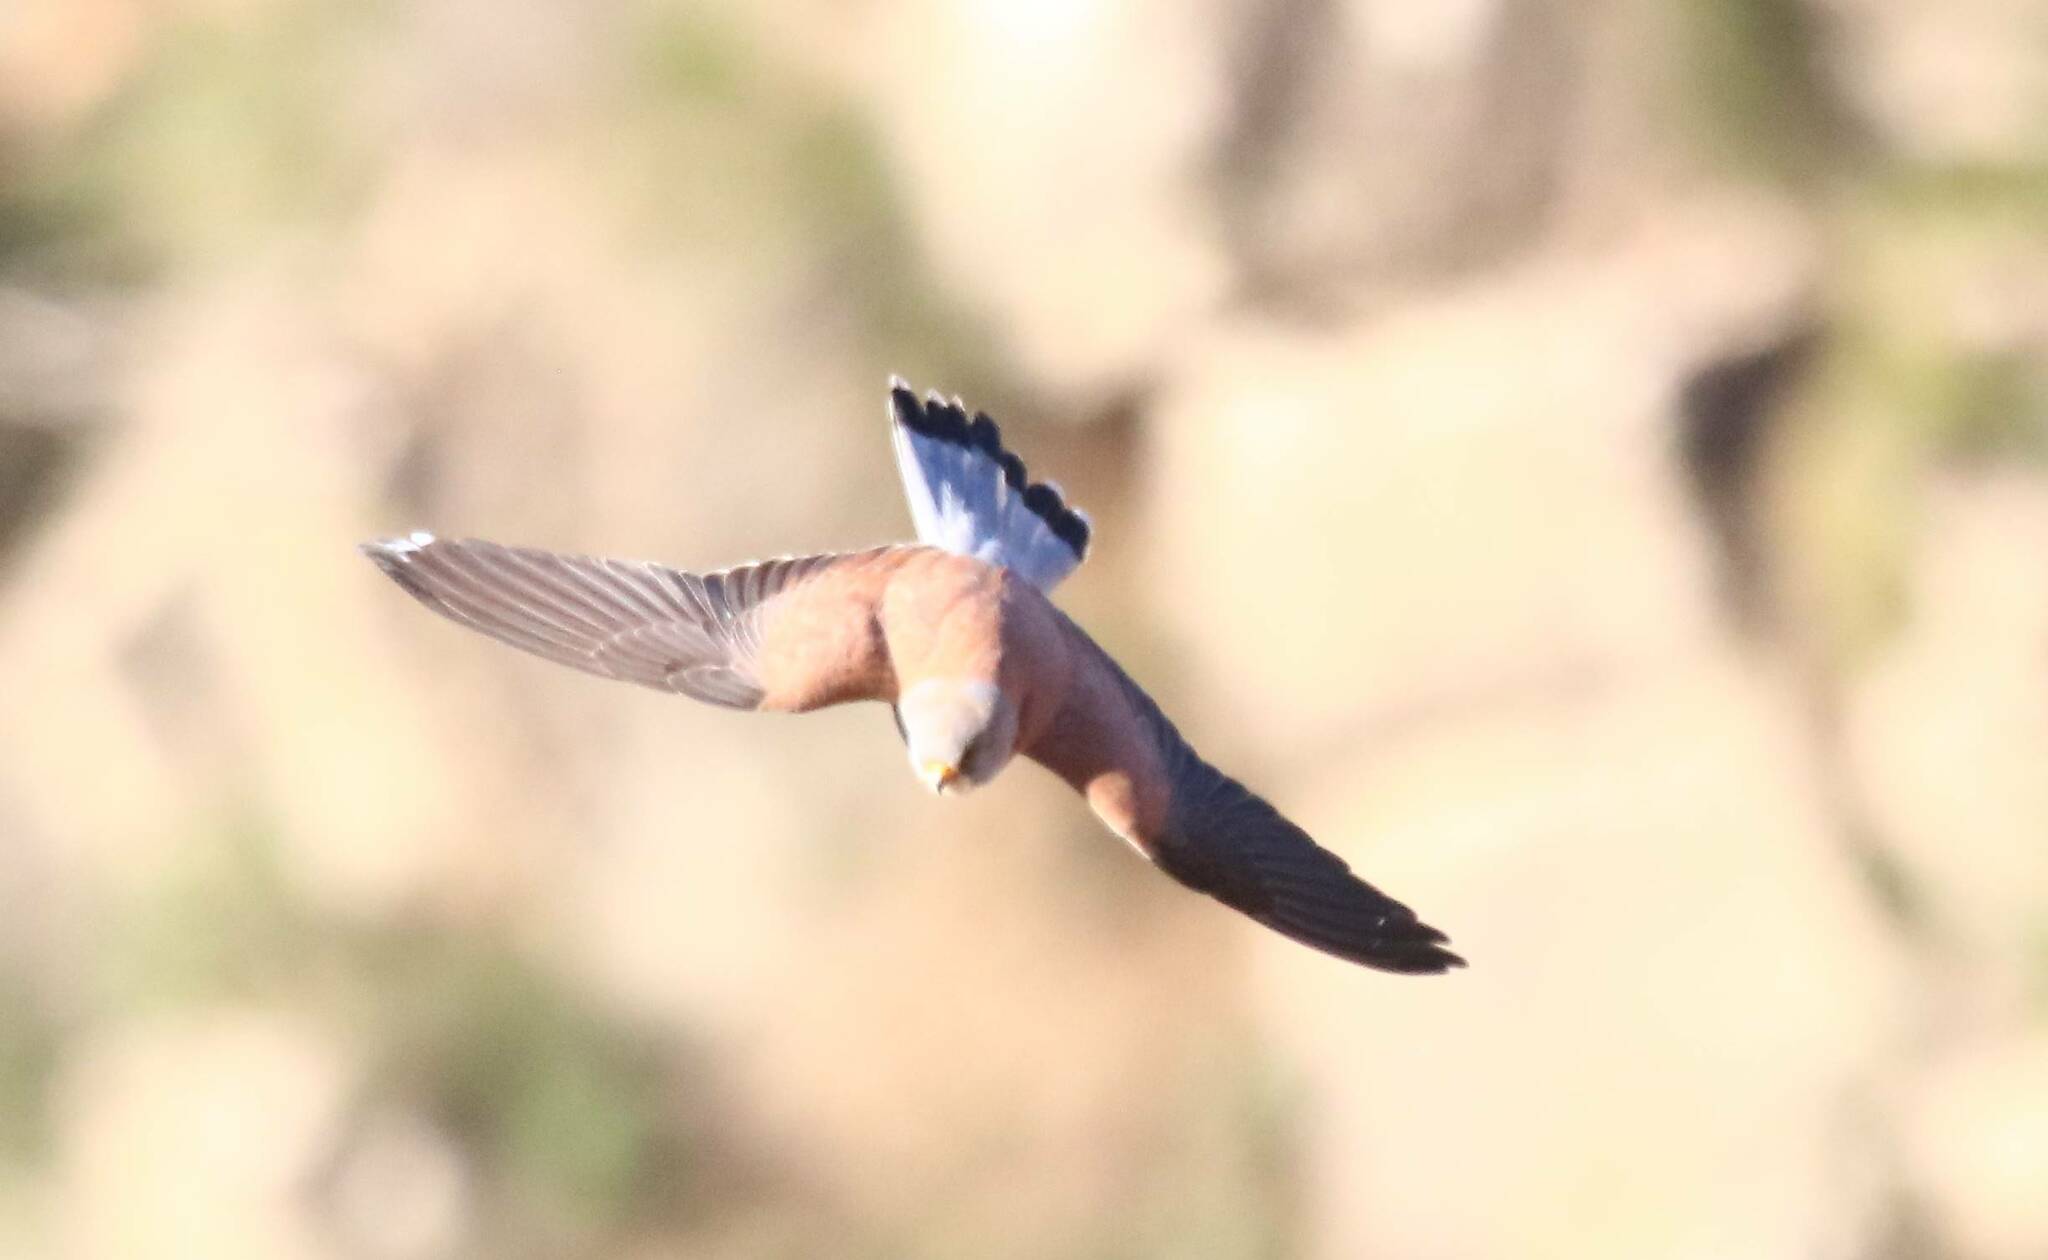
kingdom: Animalia
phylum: Chordata
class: Aves
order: Falconiformes
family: Falconidae
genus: Falco
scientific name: Falco naumanni
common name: Lesser kestrel
